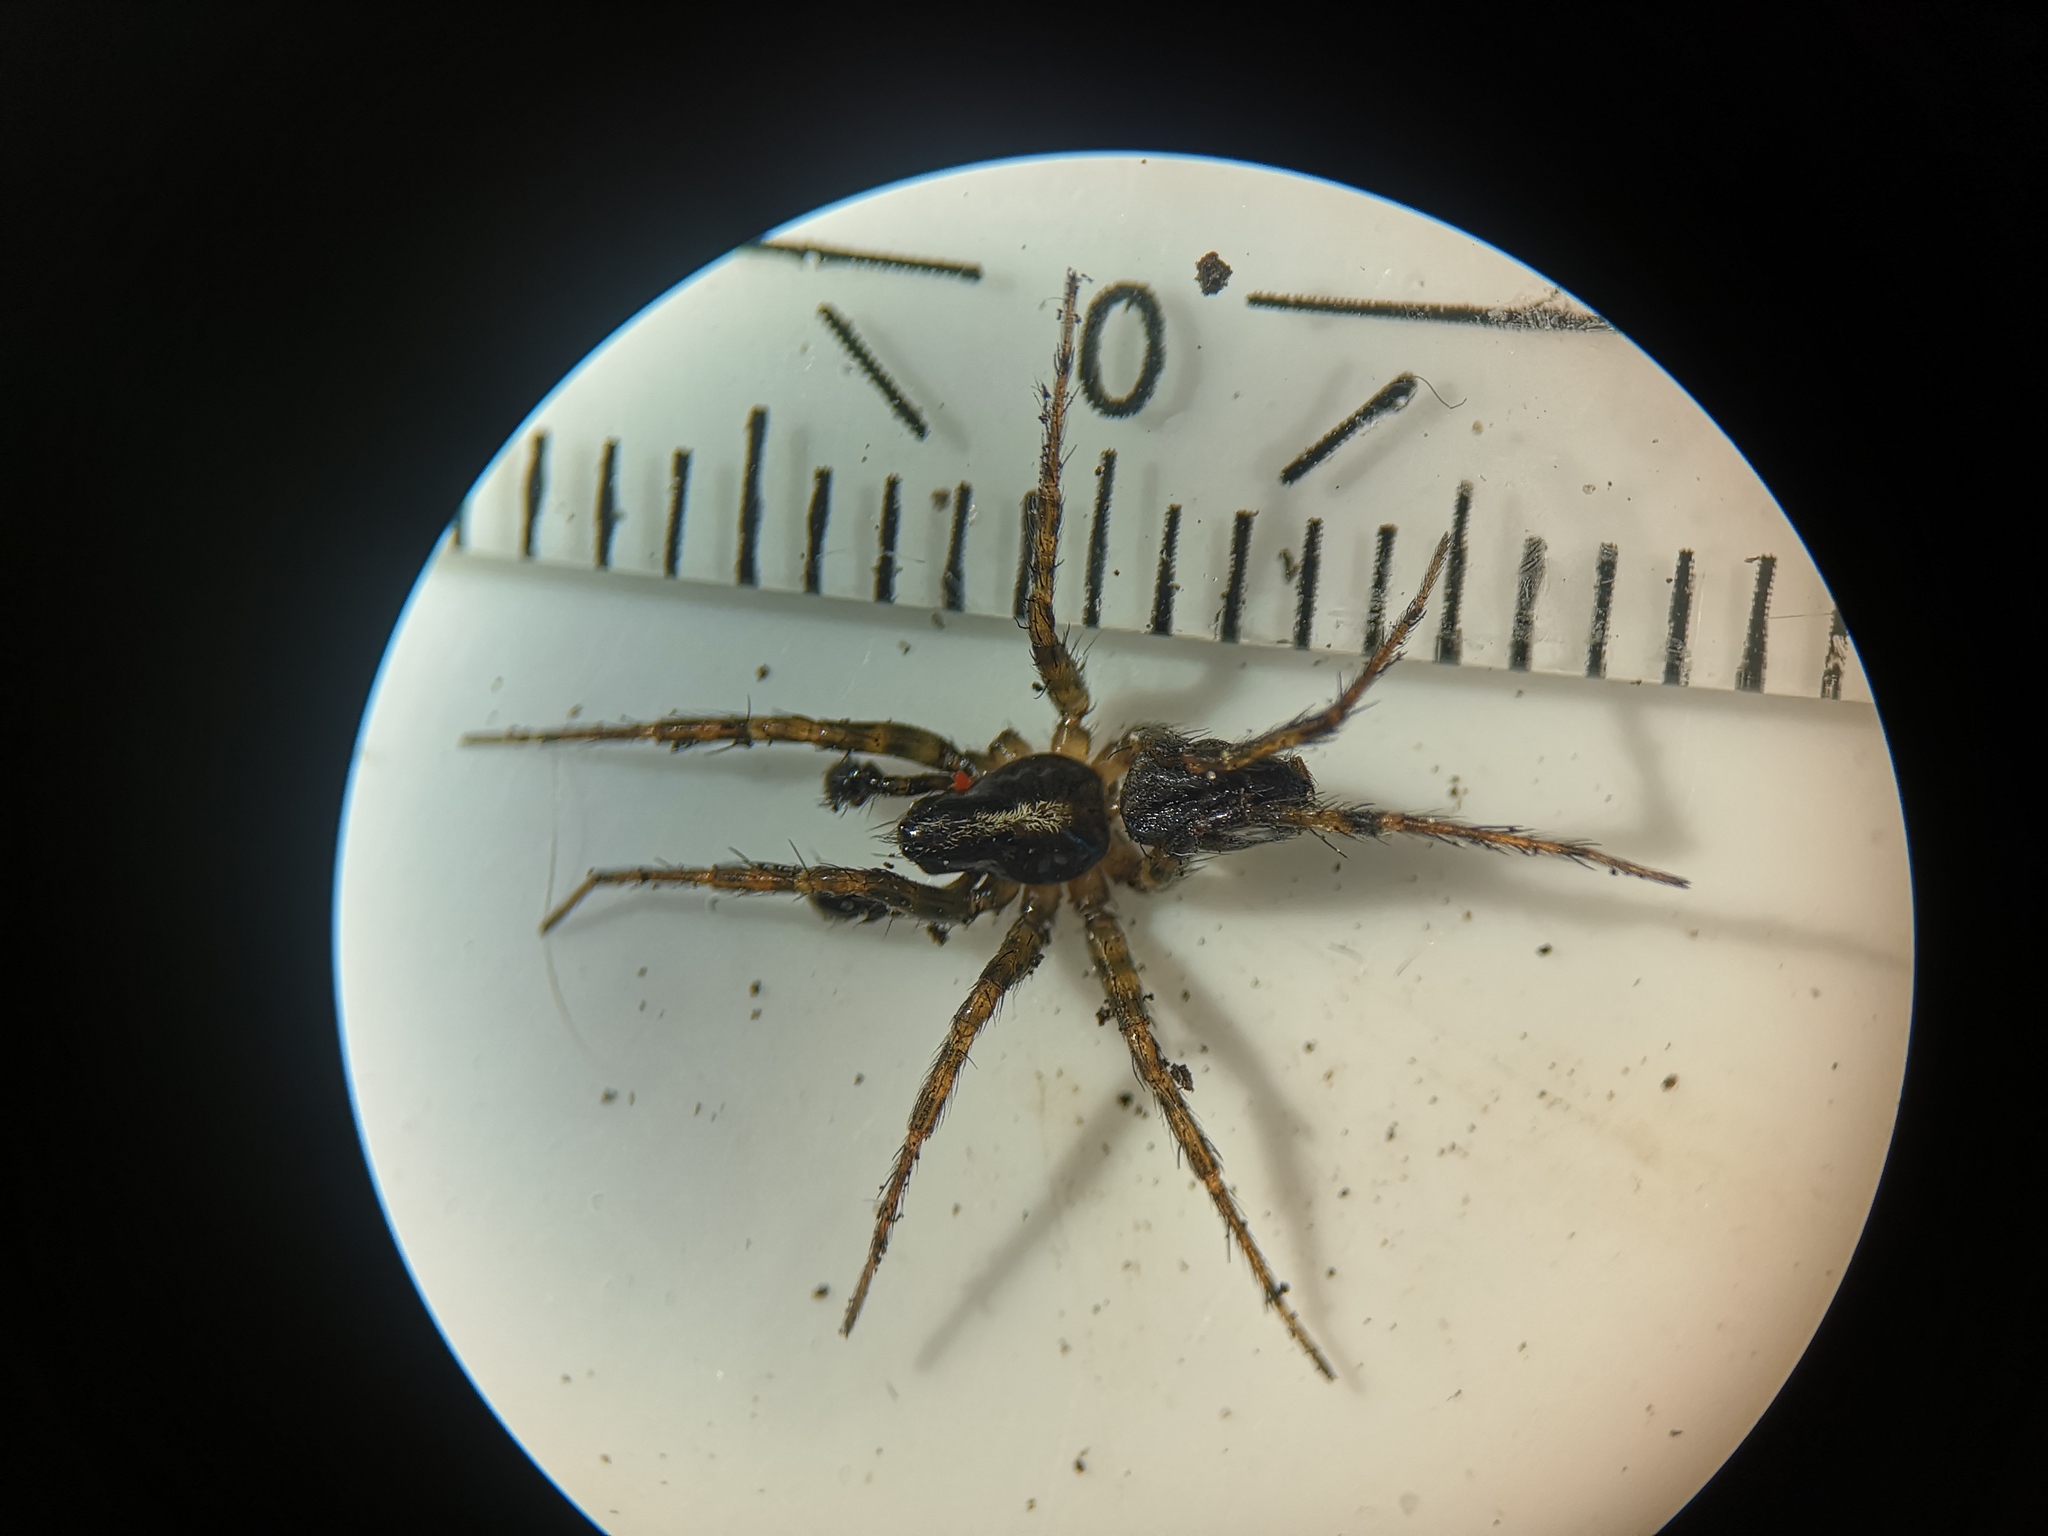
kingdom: Animalia
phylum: Arthropoda
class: Arachnida
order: Araneae
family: Agelenidae
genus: Textrix
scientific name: Textrix denticulata
